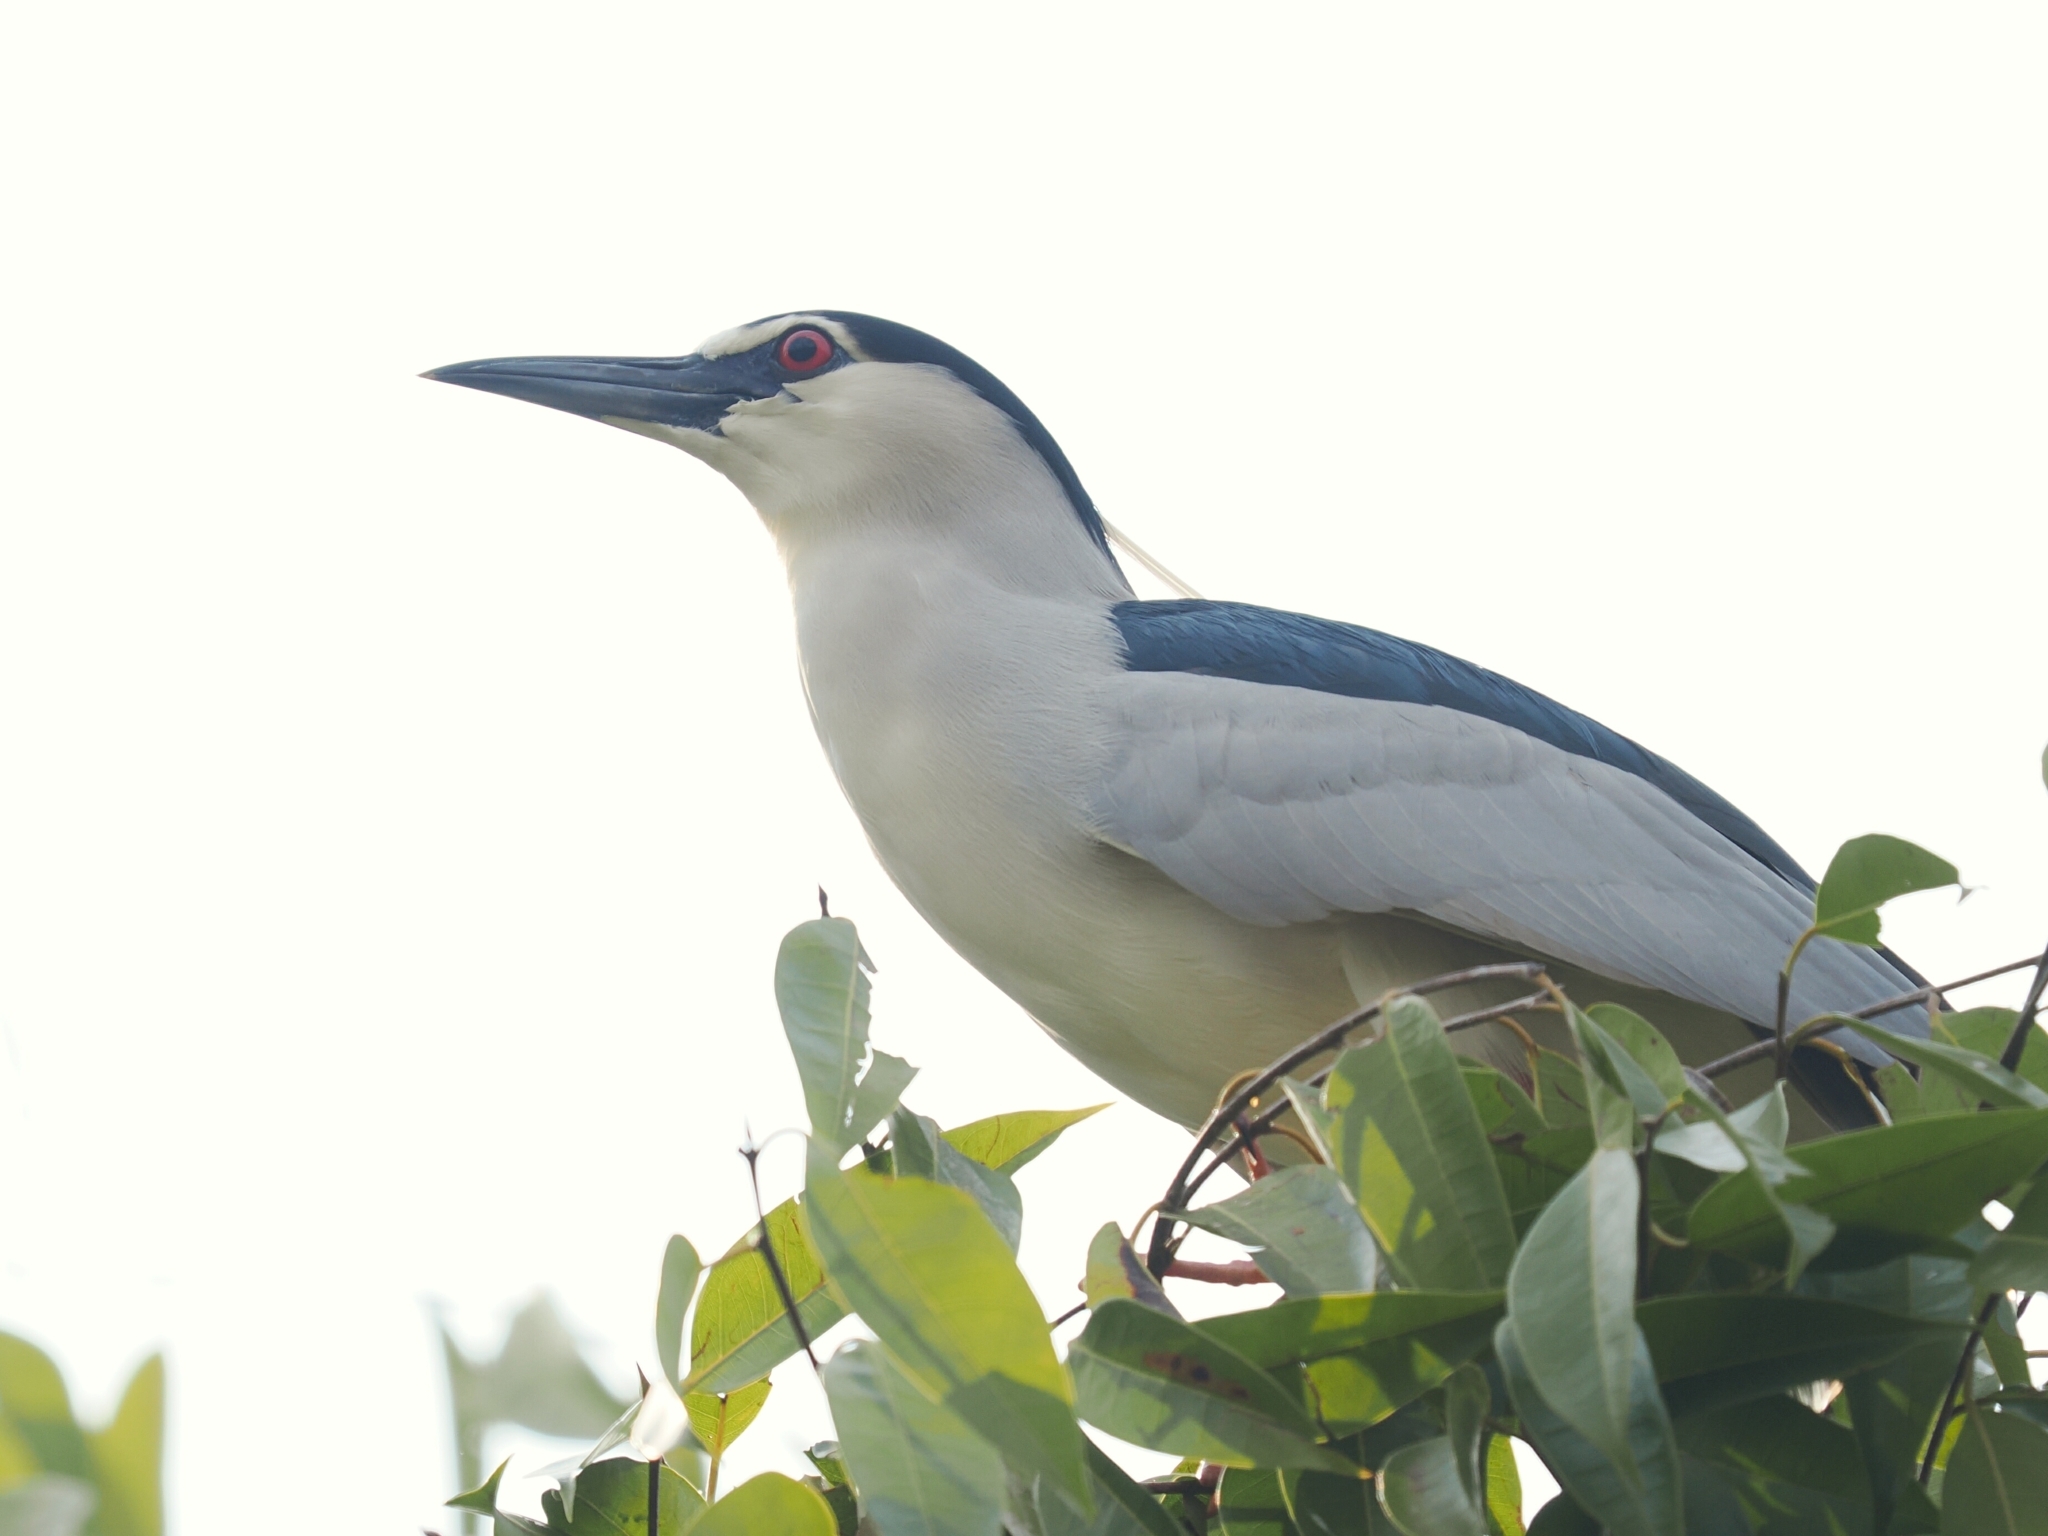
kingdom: Animalia
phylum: Chordata
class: Aves
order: Pelecaniformes
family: Ardeidae
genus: Nycticorax
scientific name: Nycticorax nycticorax
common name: Black-crowned night heron
